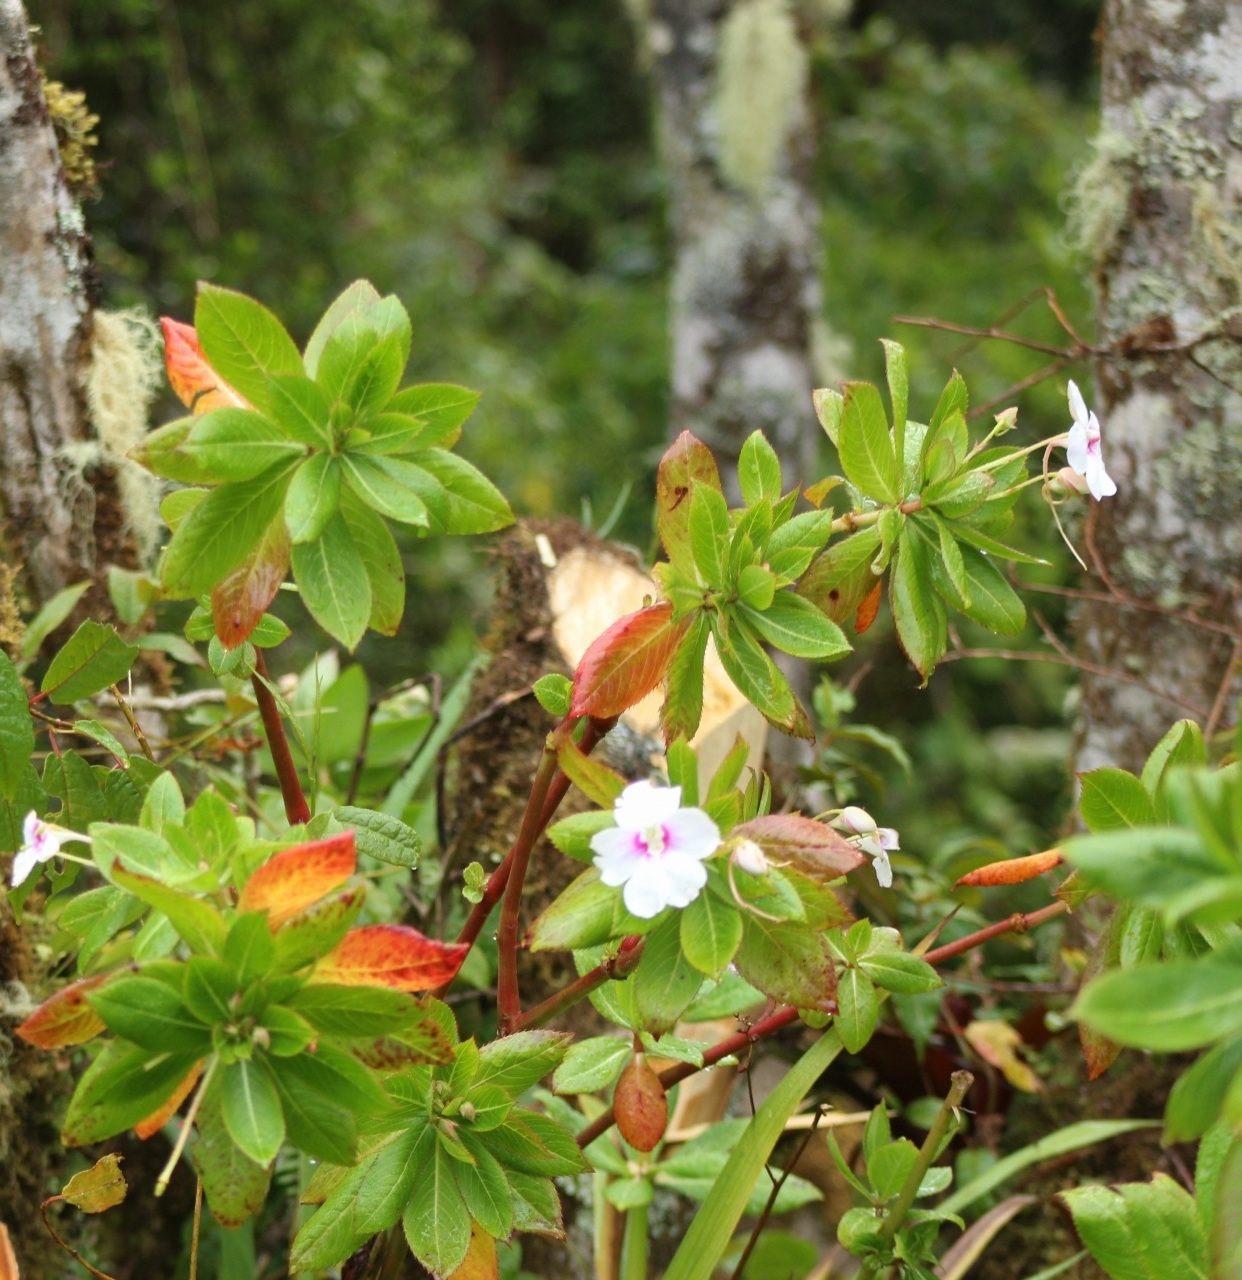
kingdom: Plantae
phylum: Tracheophyta
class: Magnoliopsida
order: Ericales
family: Balsaminaceae
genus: Impatiens
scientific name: Impatiens sodenii
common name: Oliver's touch-me-not
